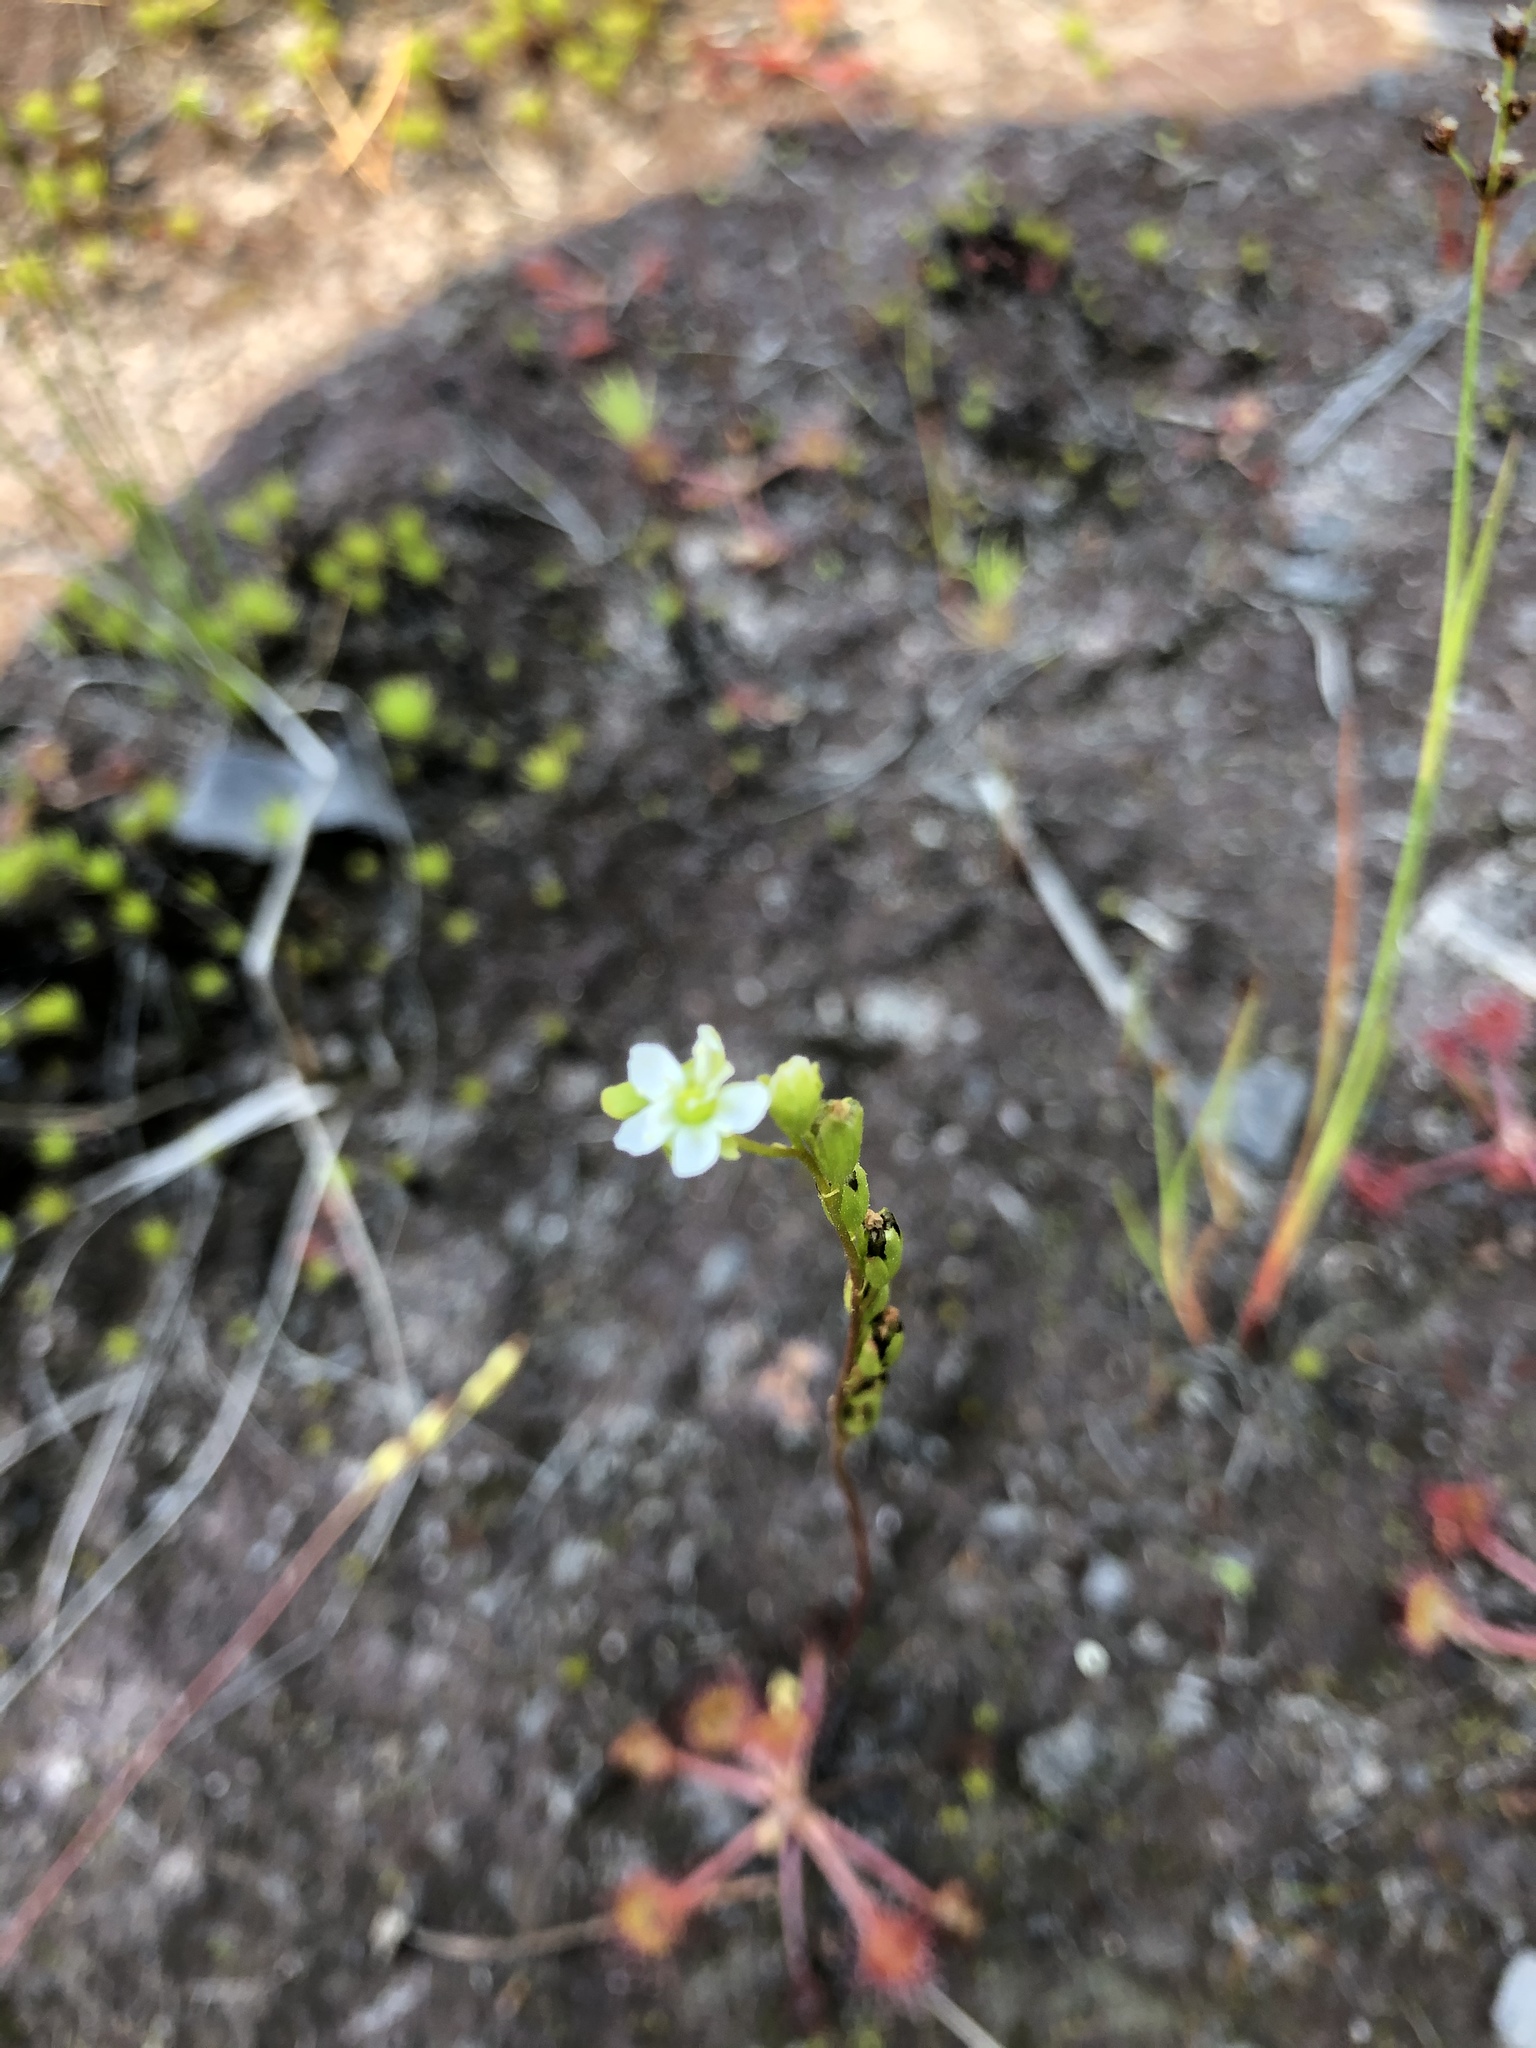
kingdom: Plantae
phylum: Tracheophyta
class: Magnoliopsida
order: Caryophyllales
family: Droseraceae
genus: Drosera
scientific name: Drosera rotundifolia
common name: Round-leaved sundew
